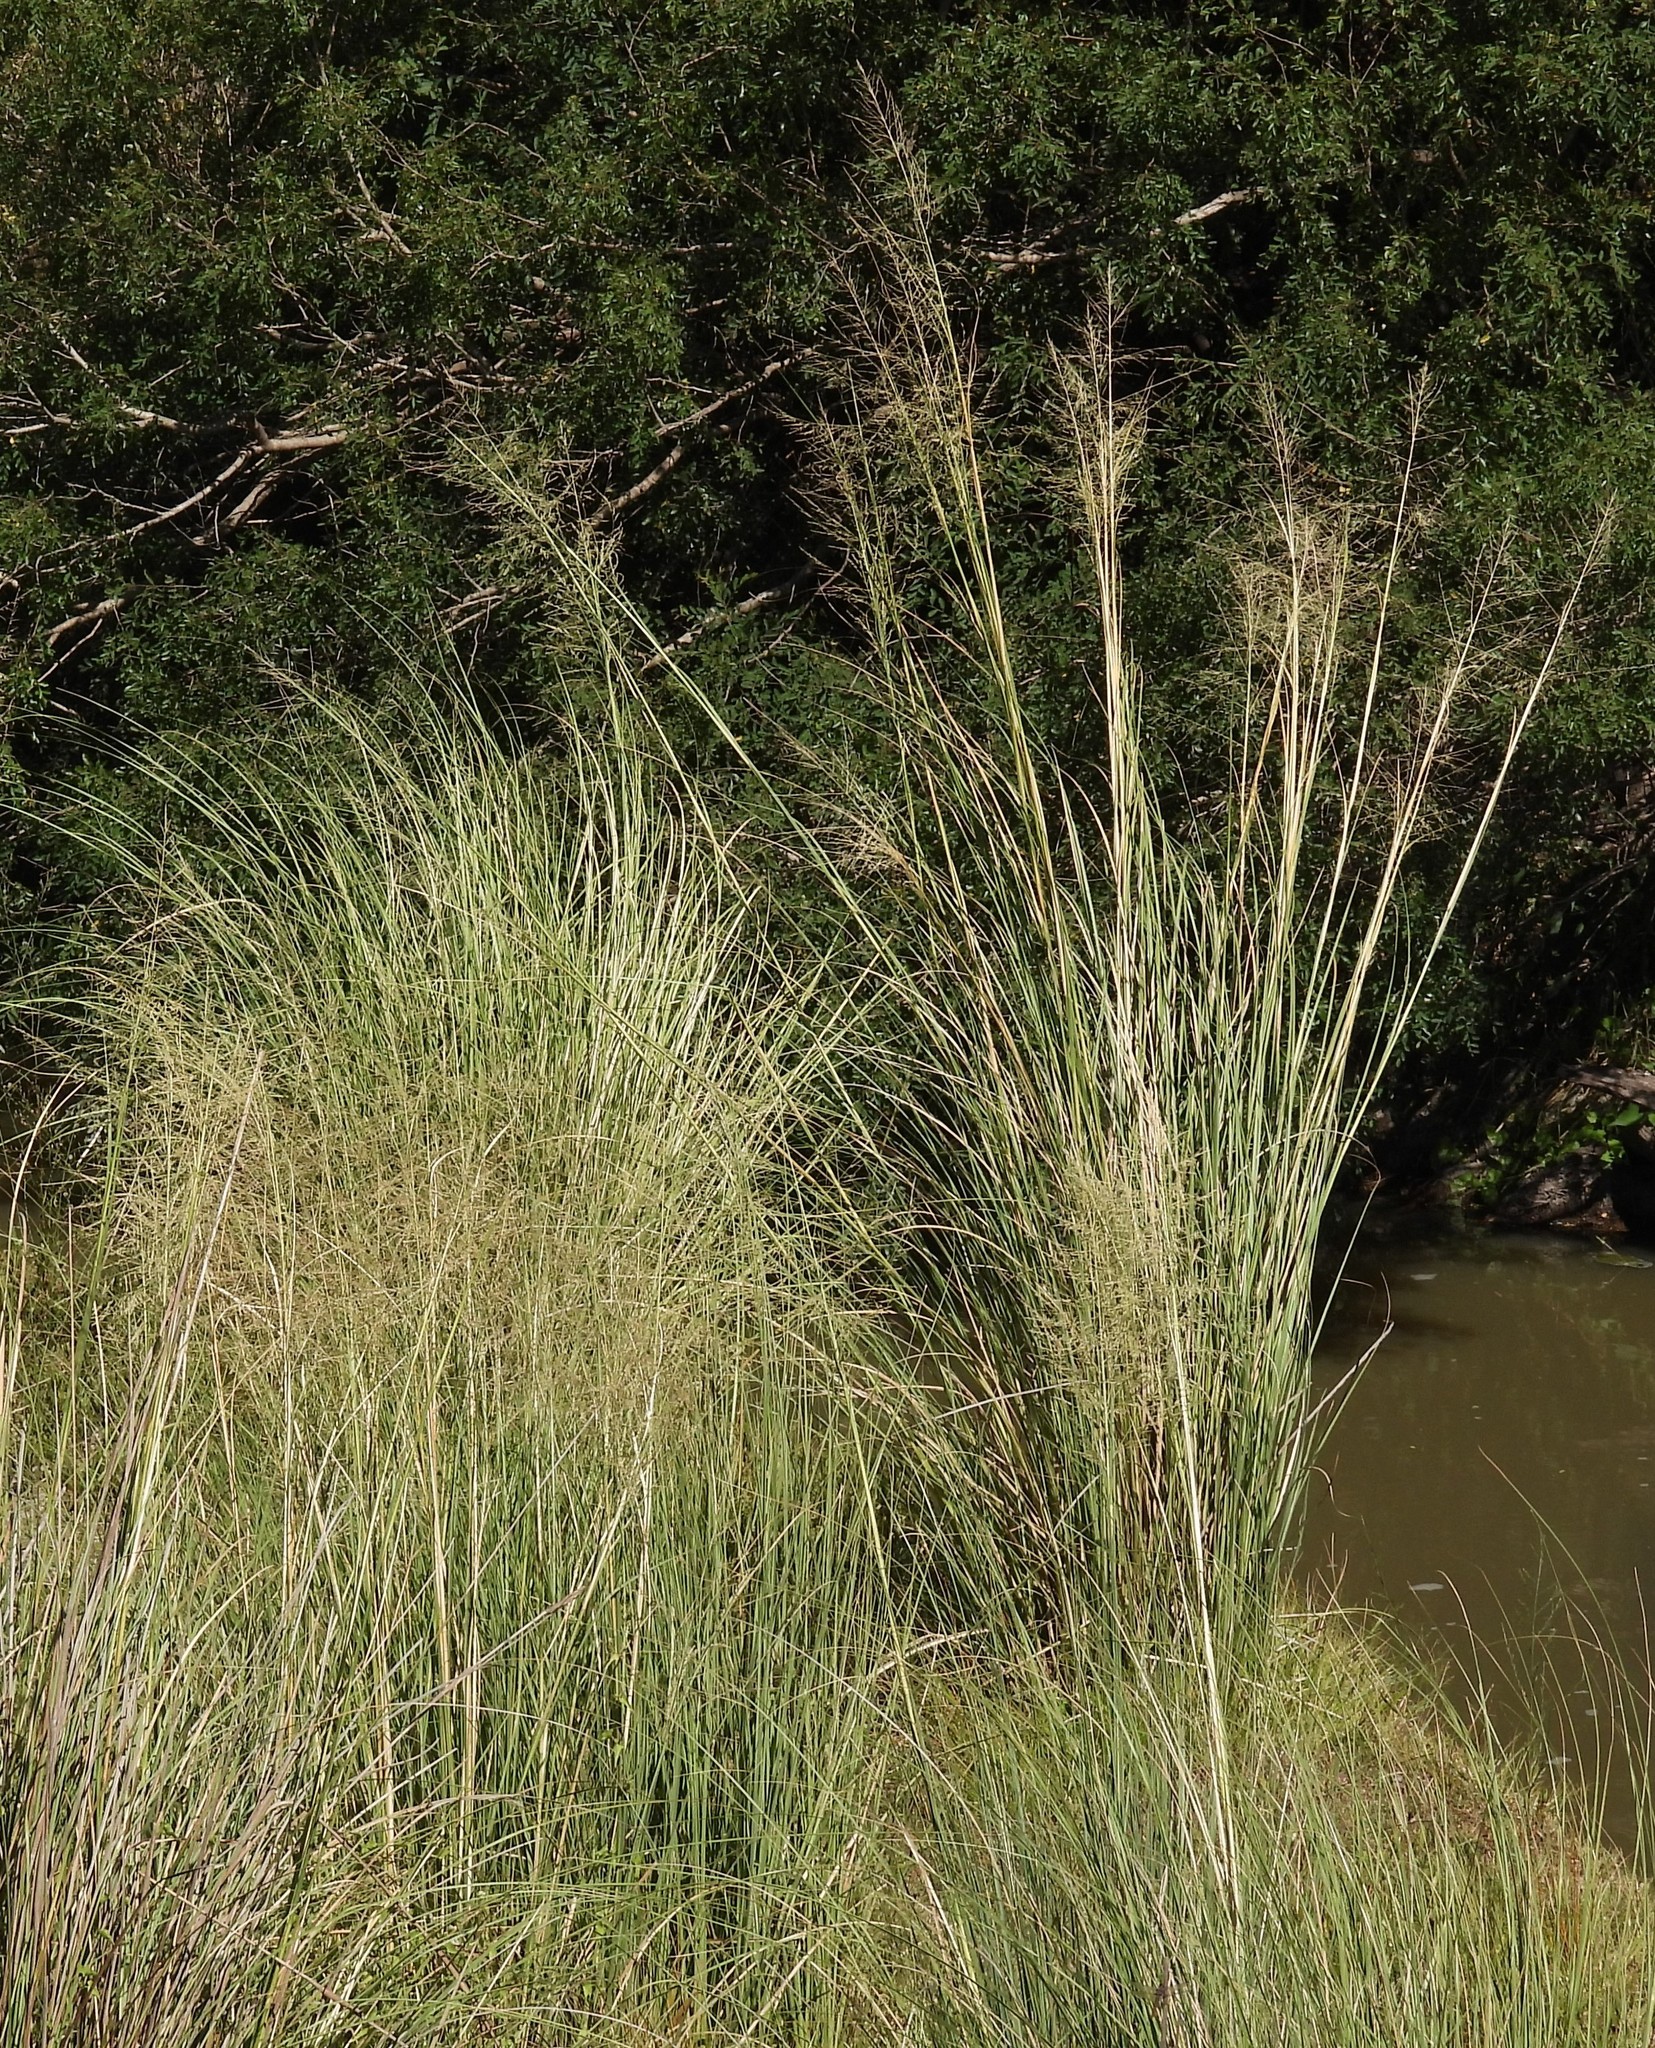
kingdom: Plantae
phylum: Tracheophyta
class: Liliopsida
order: Poales
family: Poaceae
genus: Coleataenia
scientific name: Coleataenia prionitis
